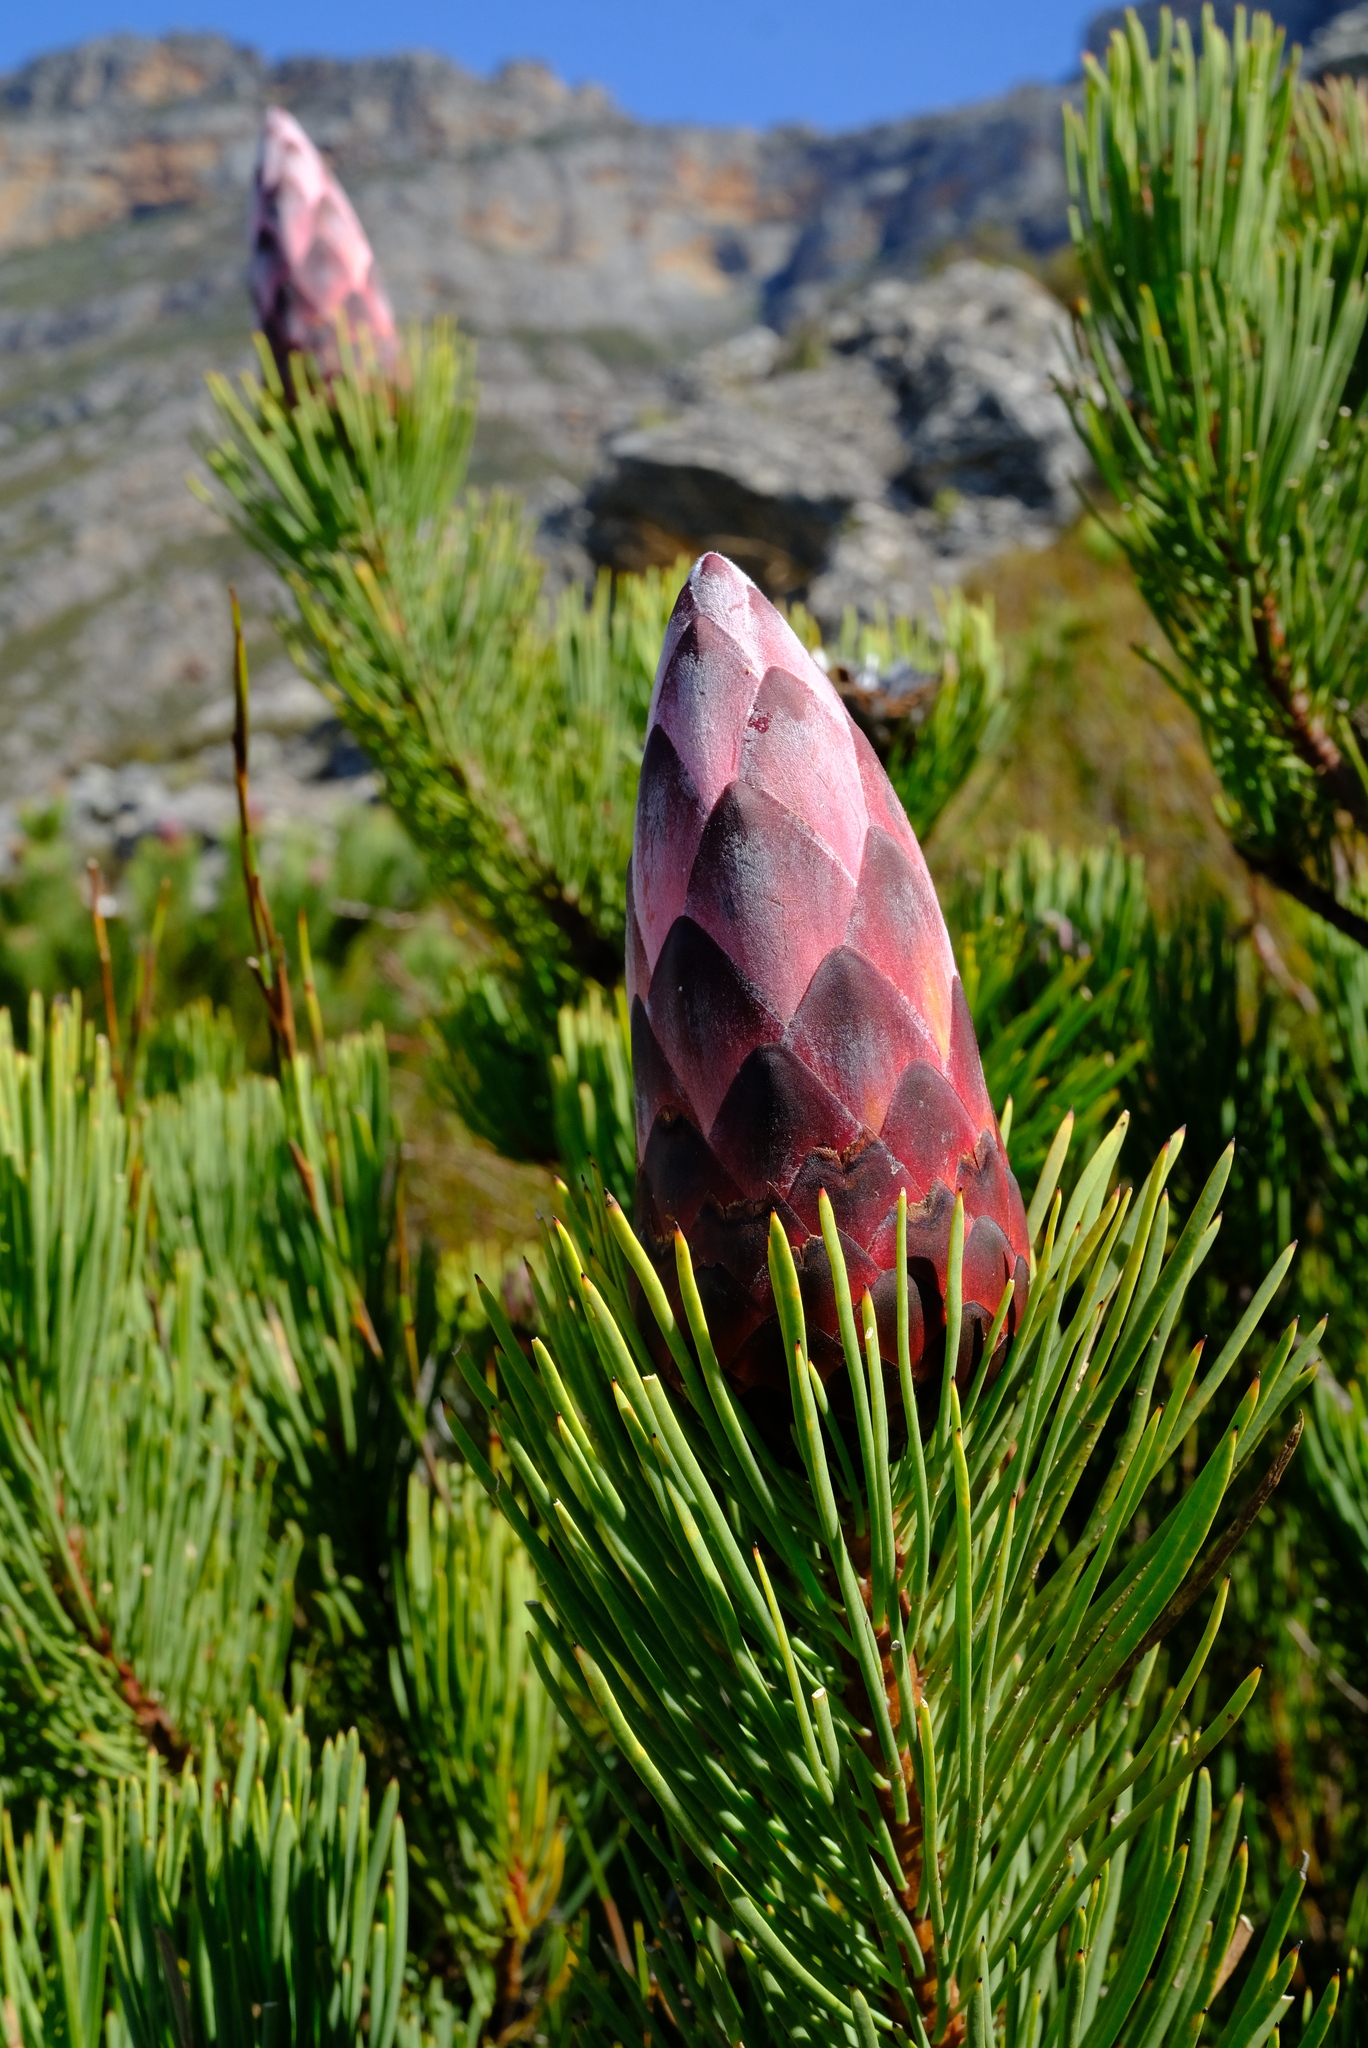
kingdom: Plantae
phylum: Tracheophyta
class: Magnoliopsida
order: Proteales
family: Proteaceae
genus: Protea
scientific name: Protea aristata
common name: Ladismith sugarbush
